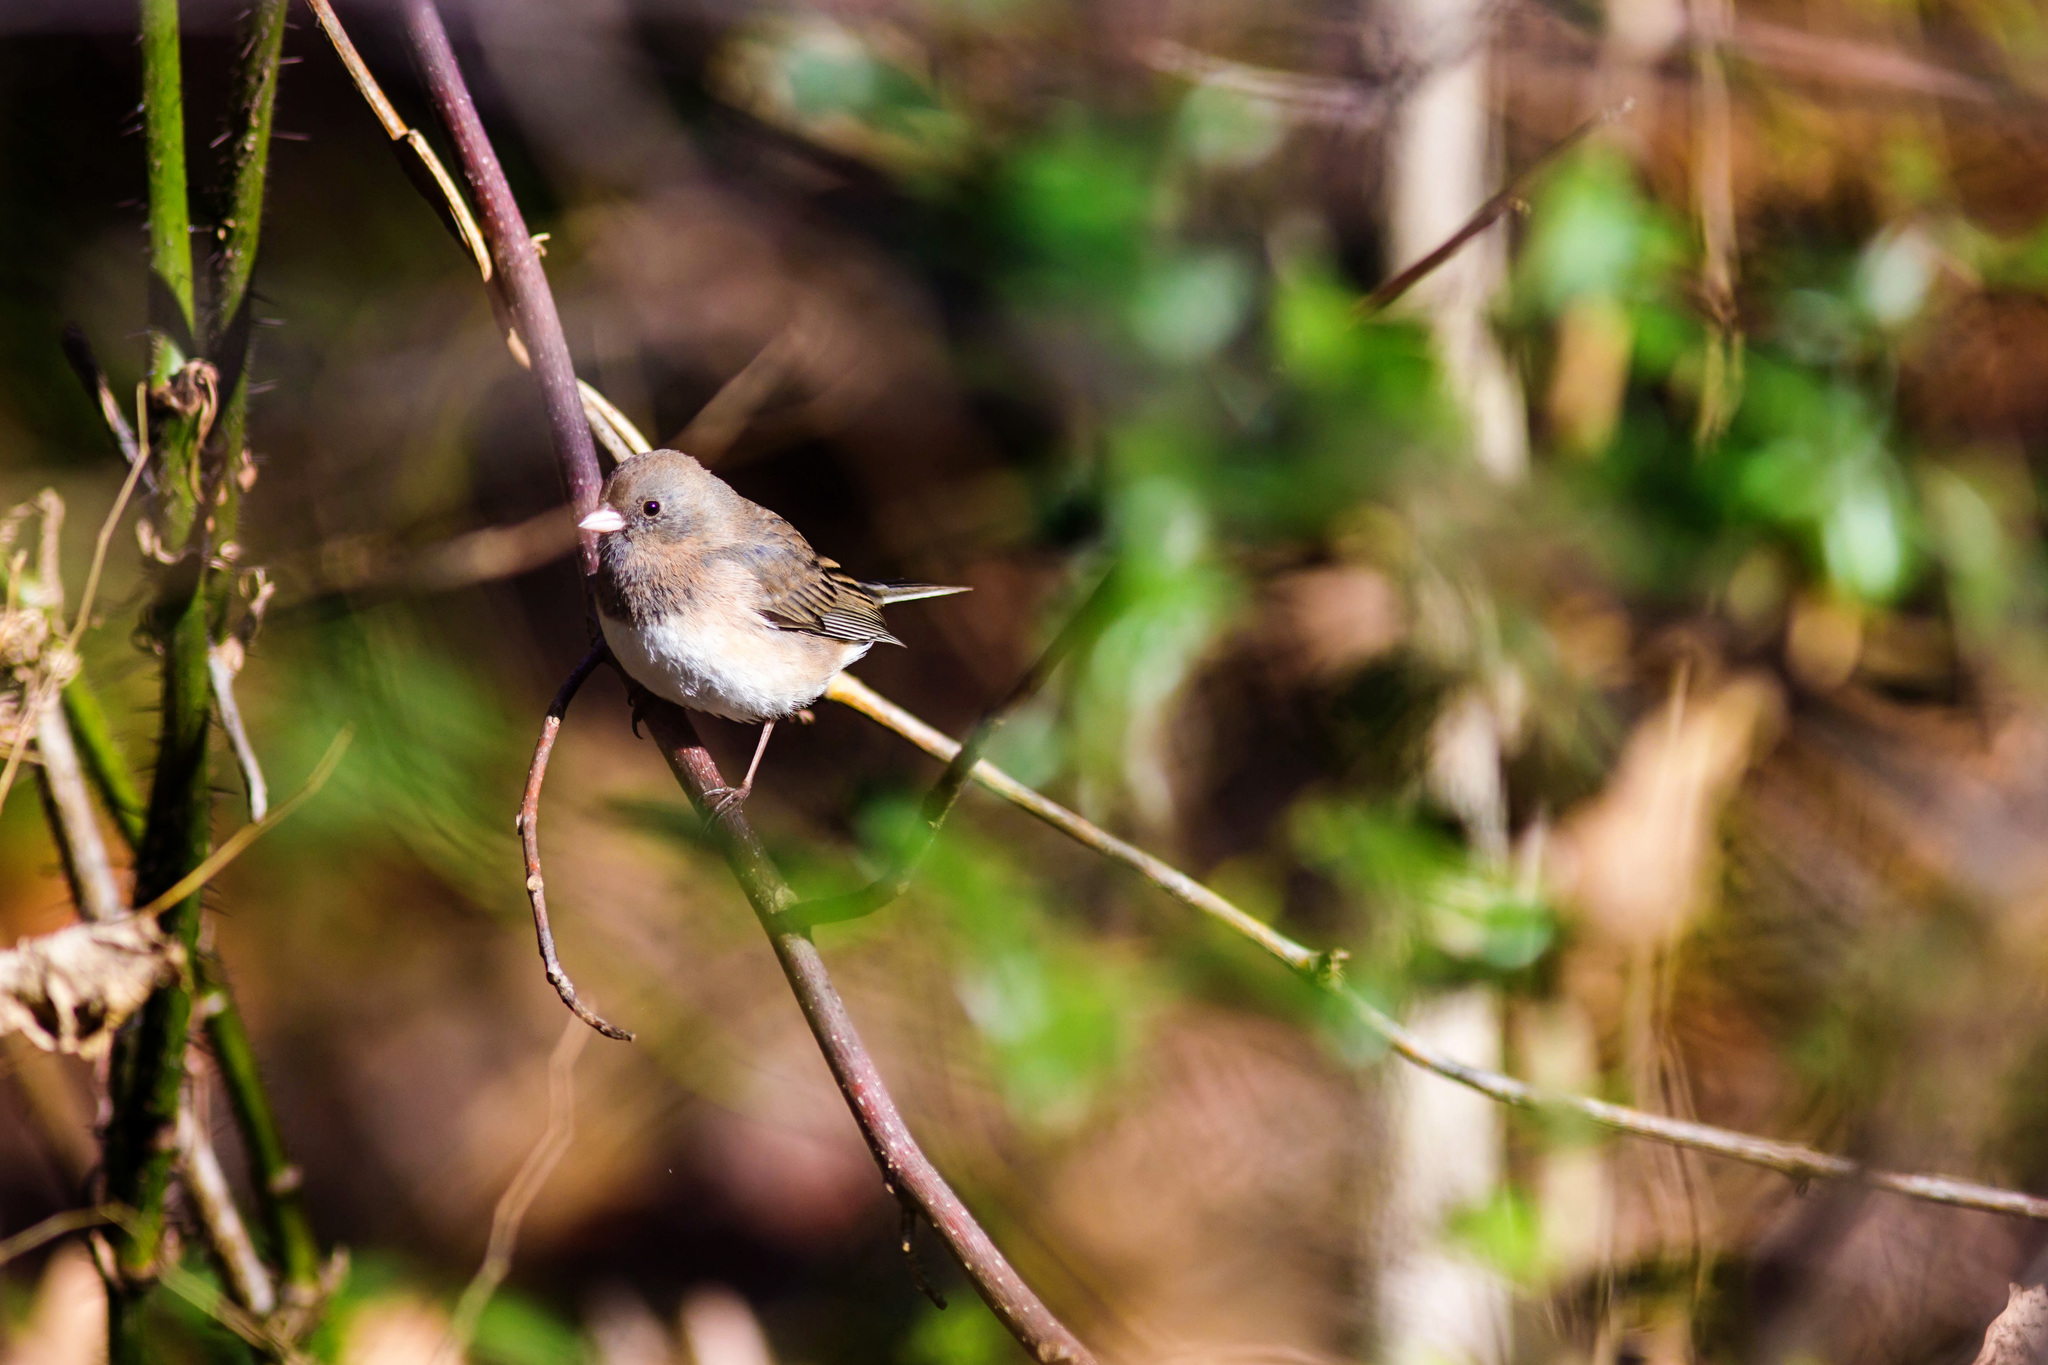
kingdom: Animalia
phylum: Chordata
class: Aves
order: Passeriformes
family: Passerellidae
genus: Junco
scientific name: Junco hyemalis
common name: Dark-eyed junco
